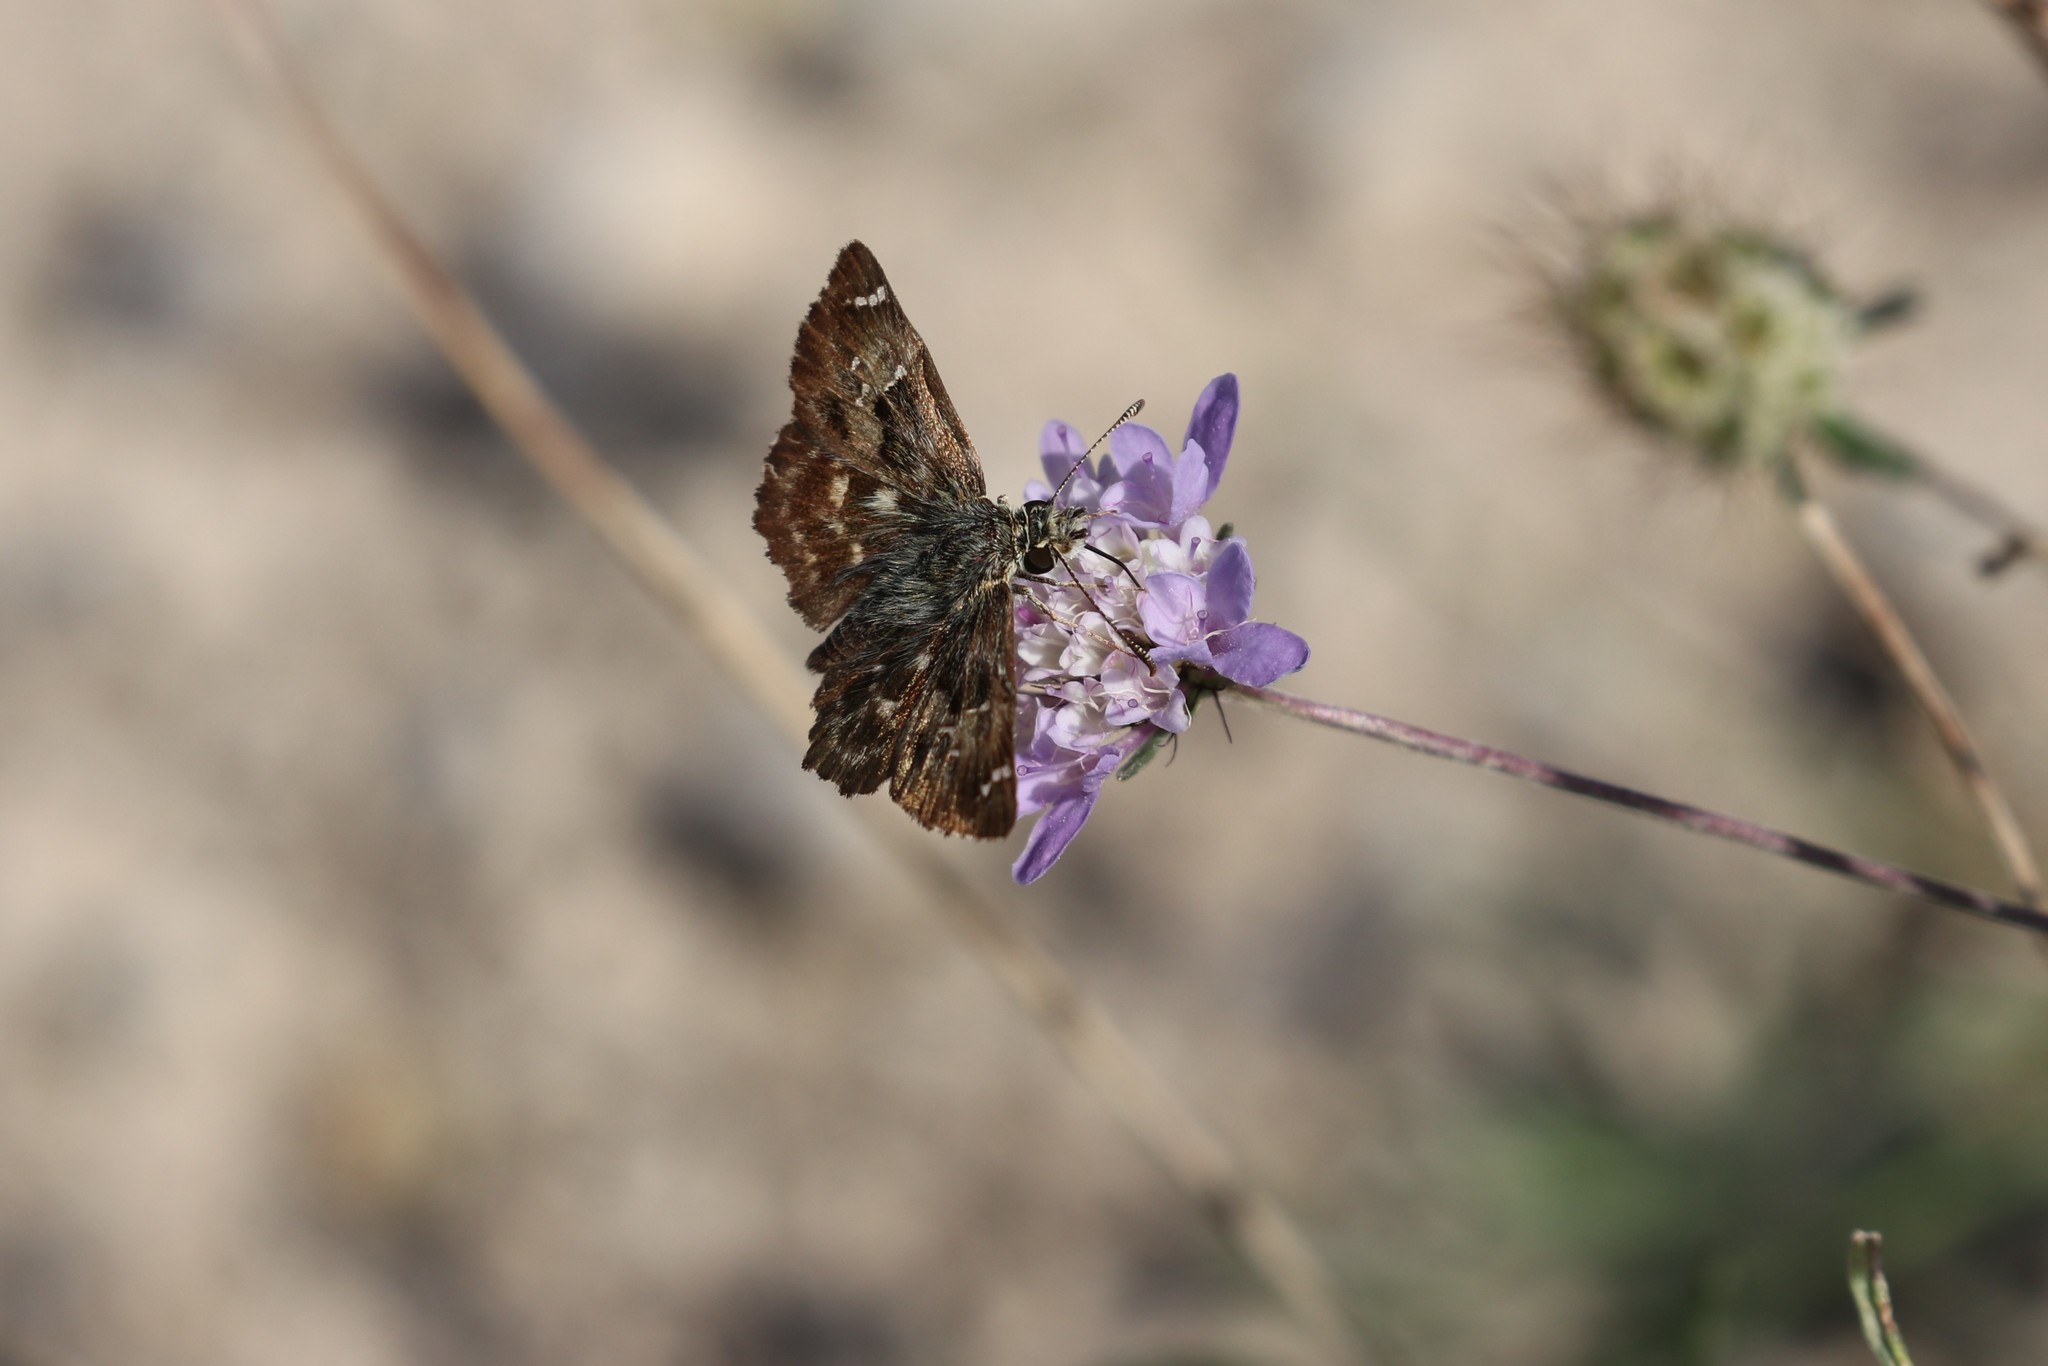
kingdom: Animalia
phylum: Arthropoda
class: Insecta
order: Lepidoptera
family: Hesperiidae
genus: Carcharodus
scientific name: Carcharodus alceae
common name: Mallow skipper
